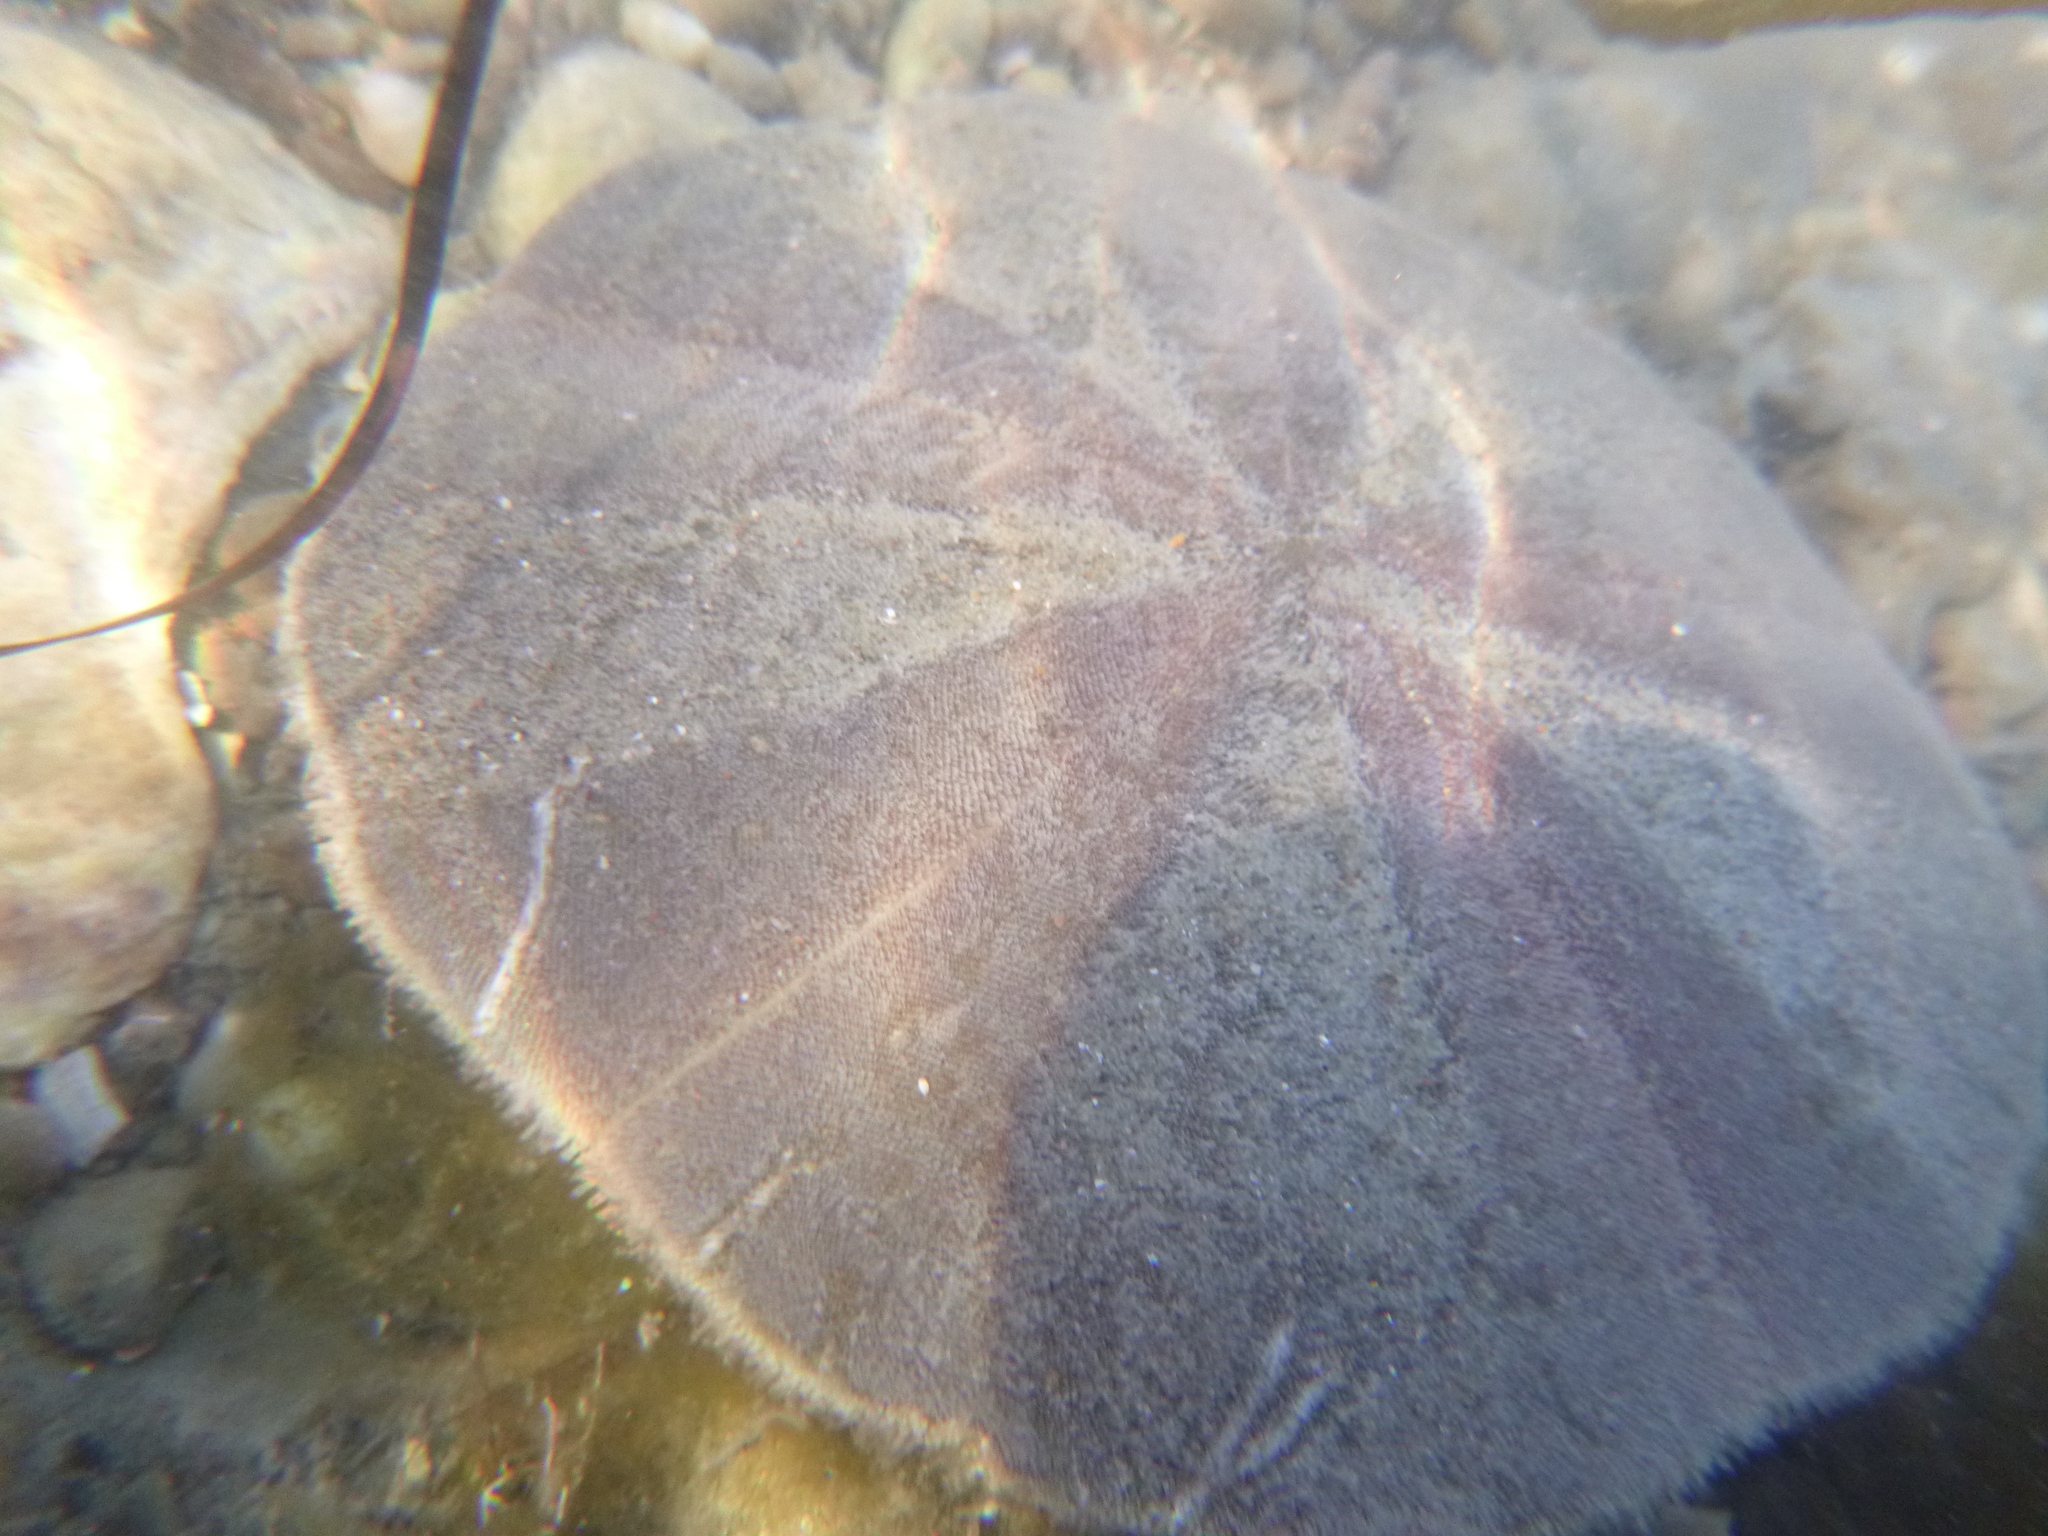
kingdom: Animalia
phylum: Echinodermata
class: Echinoidea
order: Clypeasteroida
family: Clypeasteridae
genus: Fellaster
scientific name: Fellaster zelandiae
